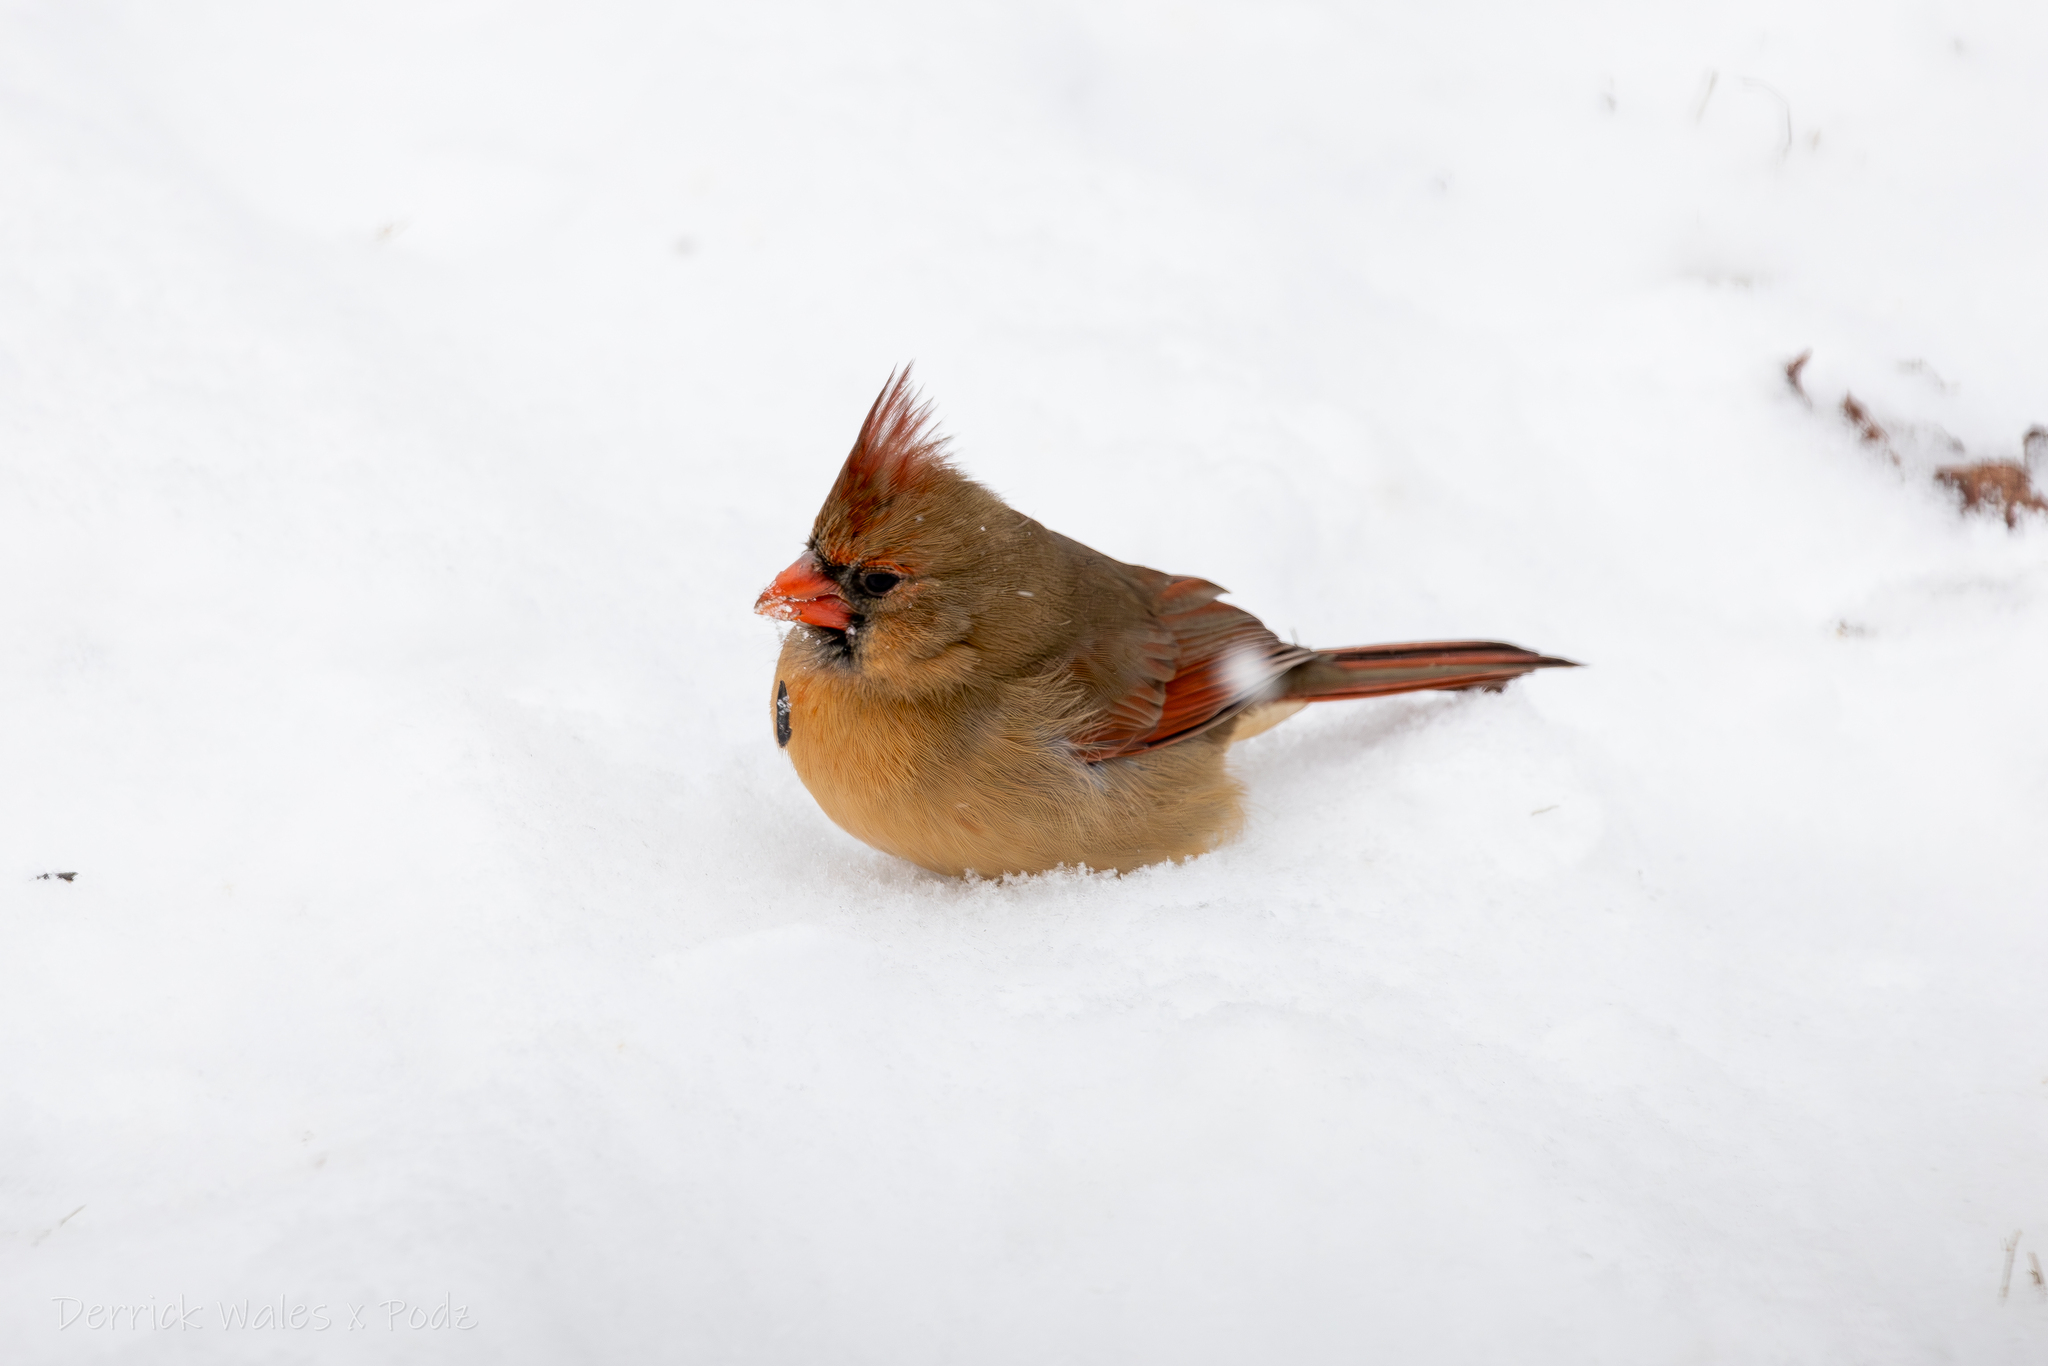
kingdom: Animalia
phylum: Chordata
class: Aves
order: Passeriformes
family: Cardinalidae
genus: Cardinalis
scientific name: Cardinalis cardinalis
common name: Northern cardinal
